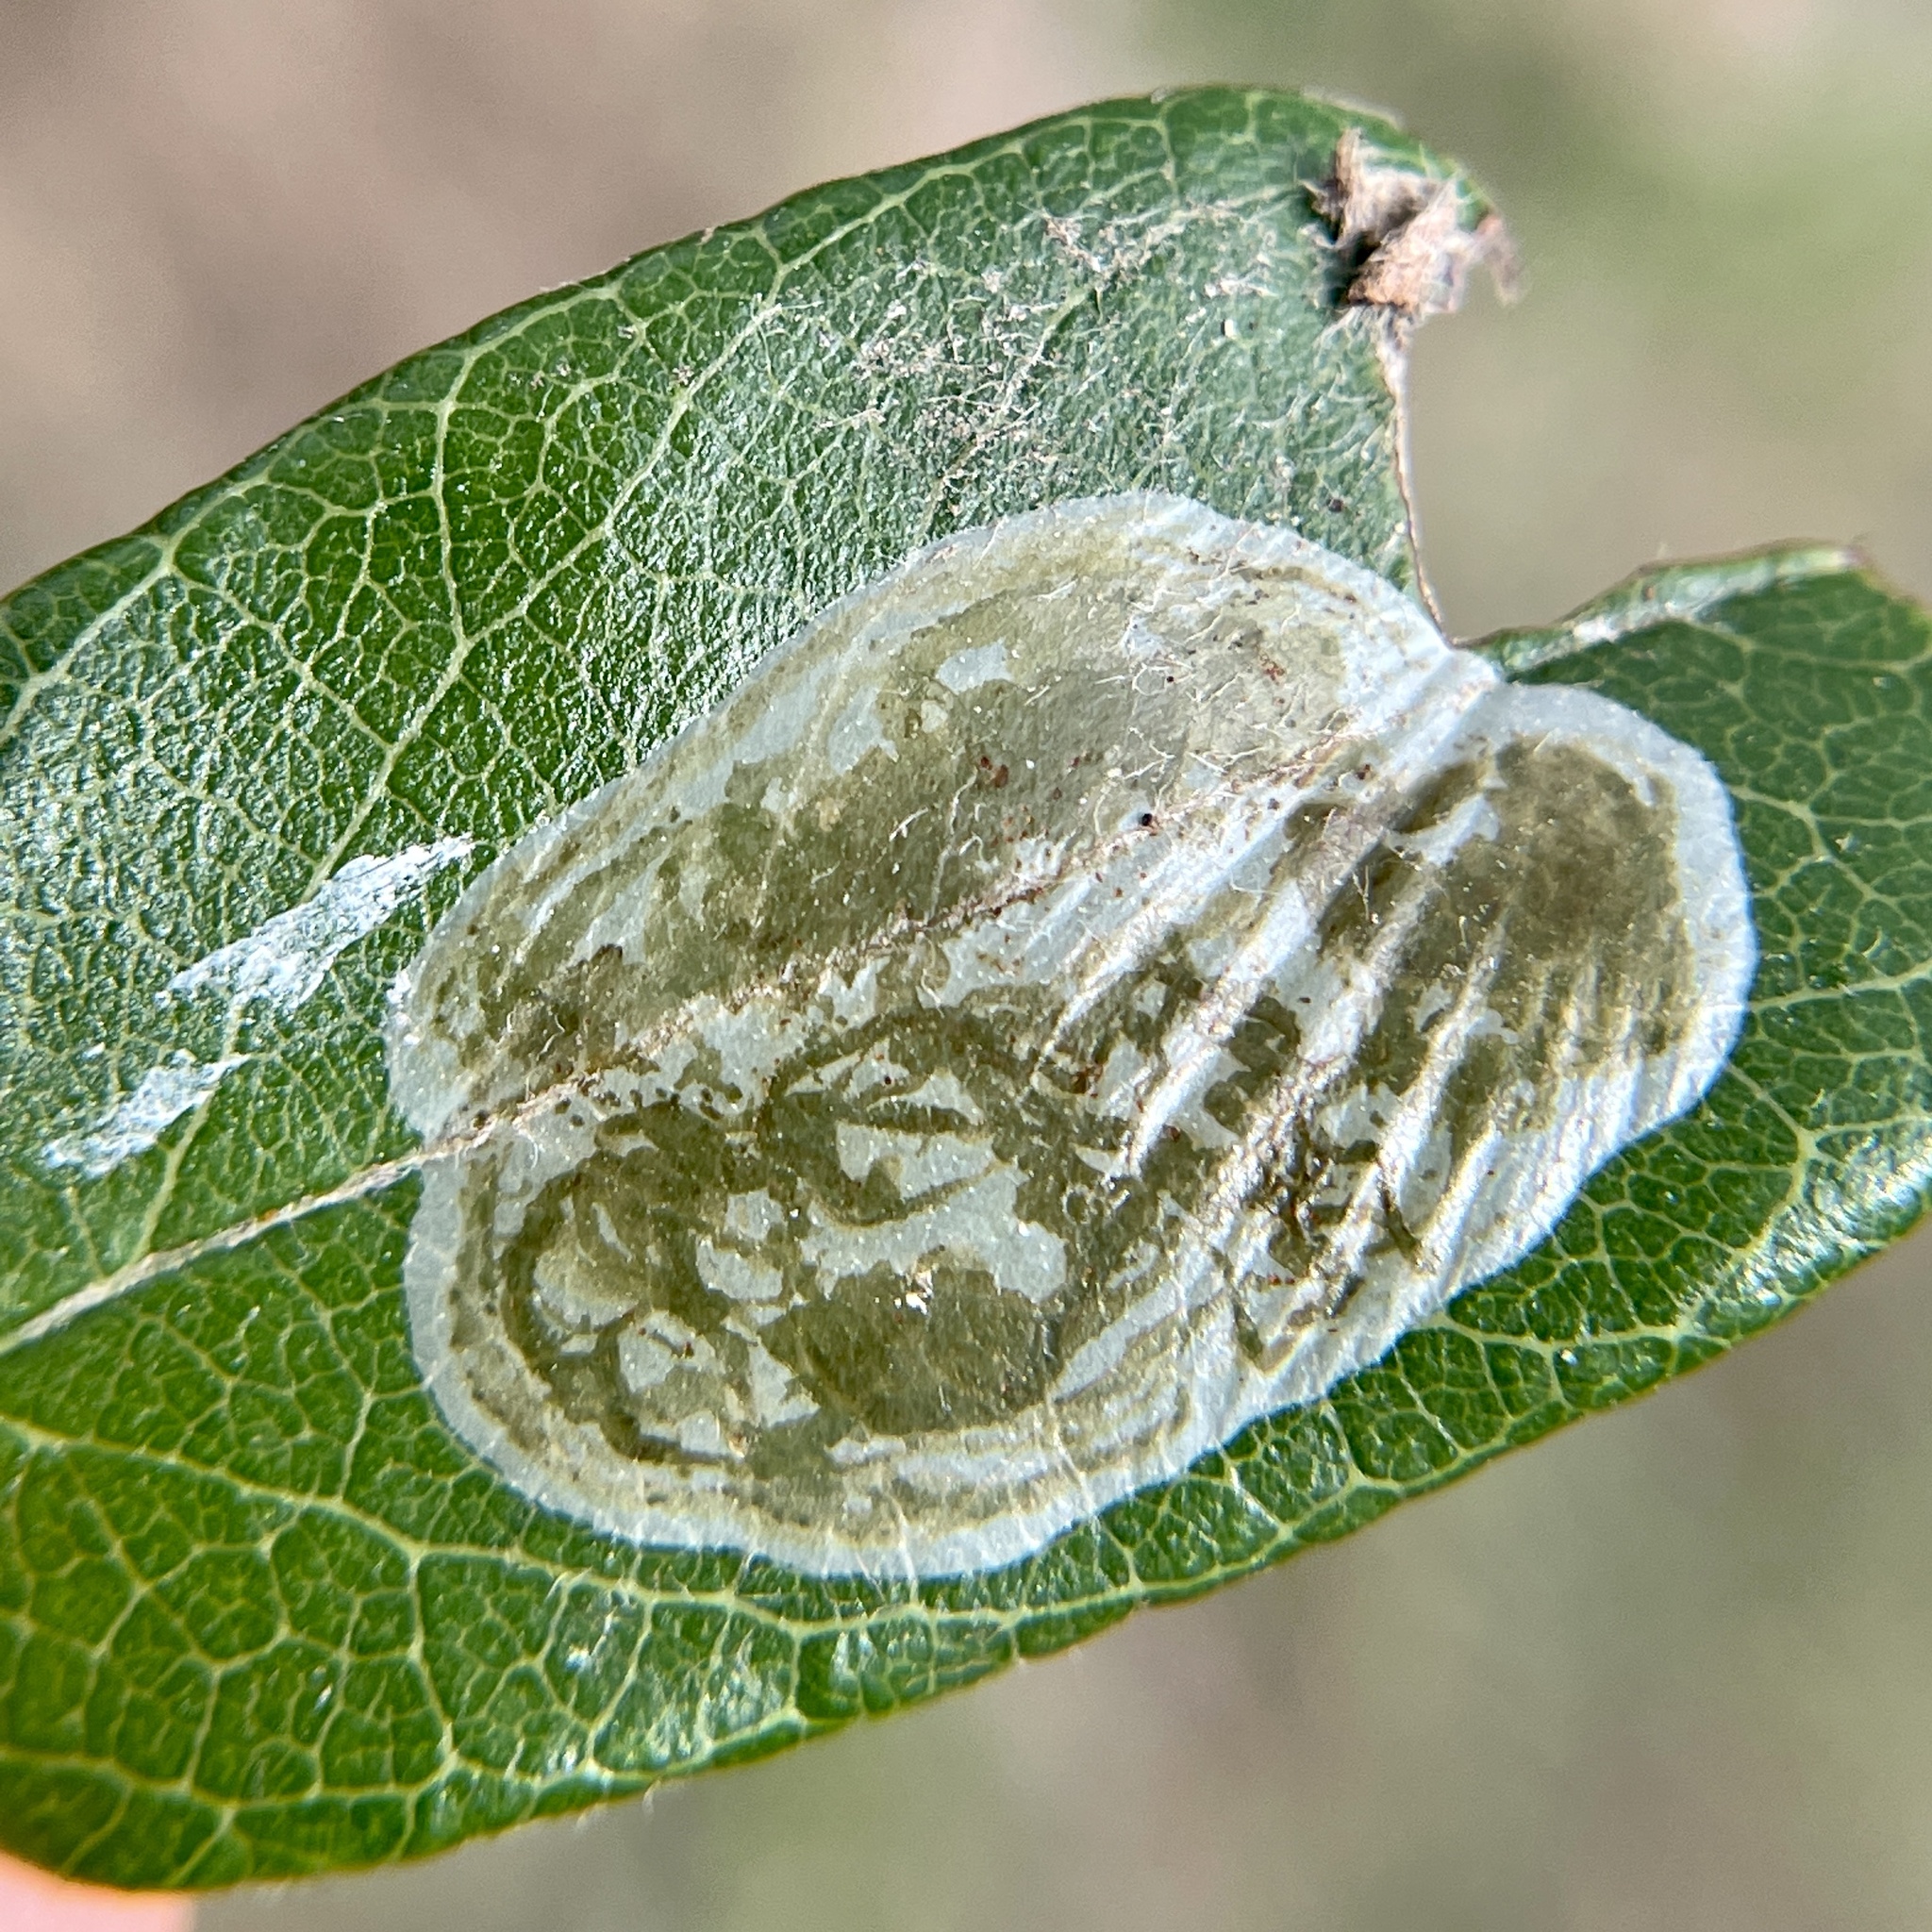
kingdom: Animalia
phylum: Arthropoda
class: Insecta
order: Lepidoptera
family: Gracillariidae
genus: Parectopa
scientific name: Parectopa bumeliella
